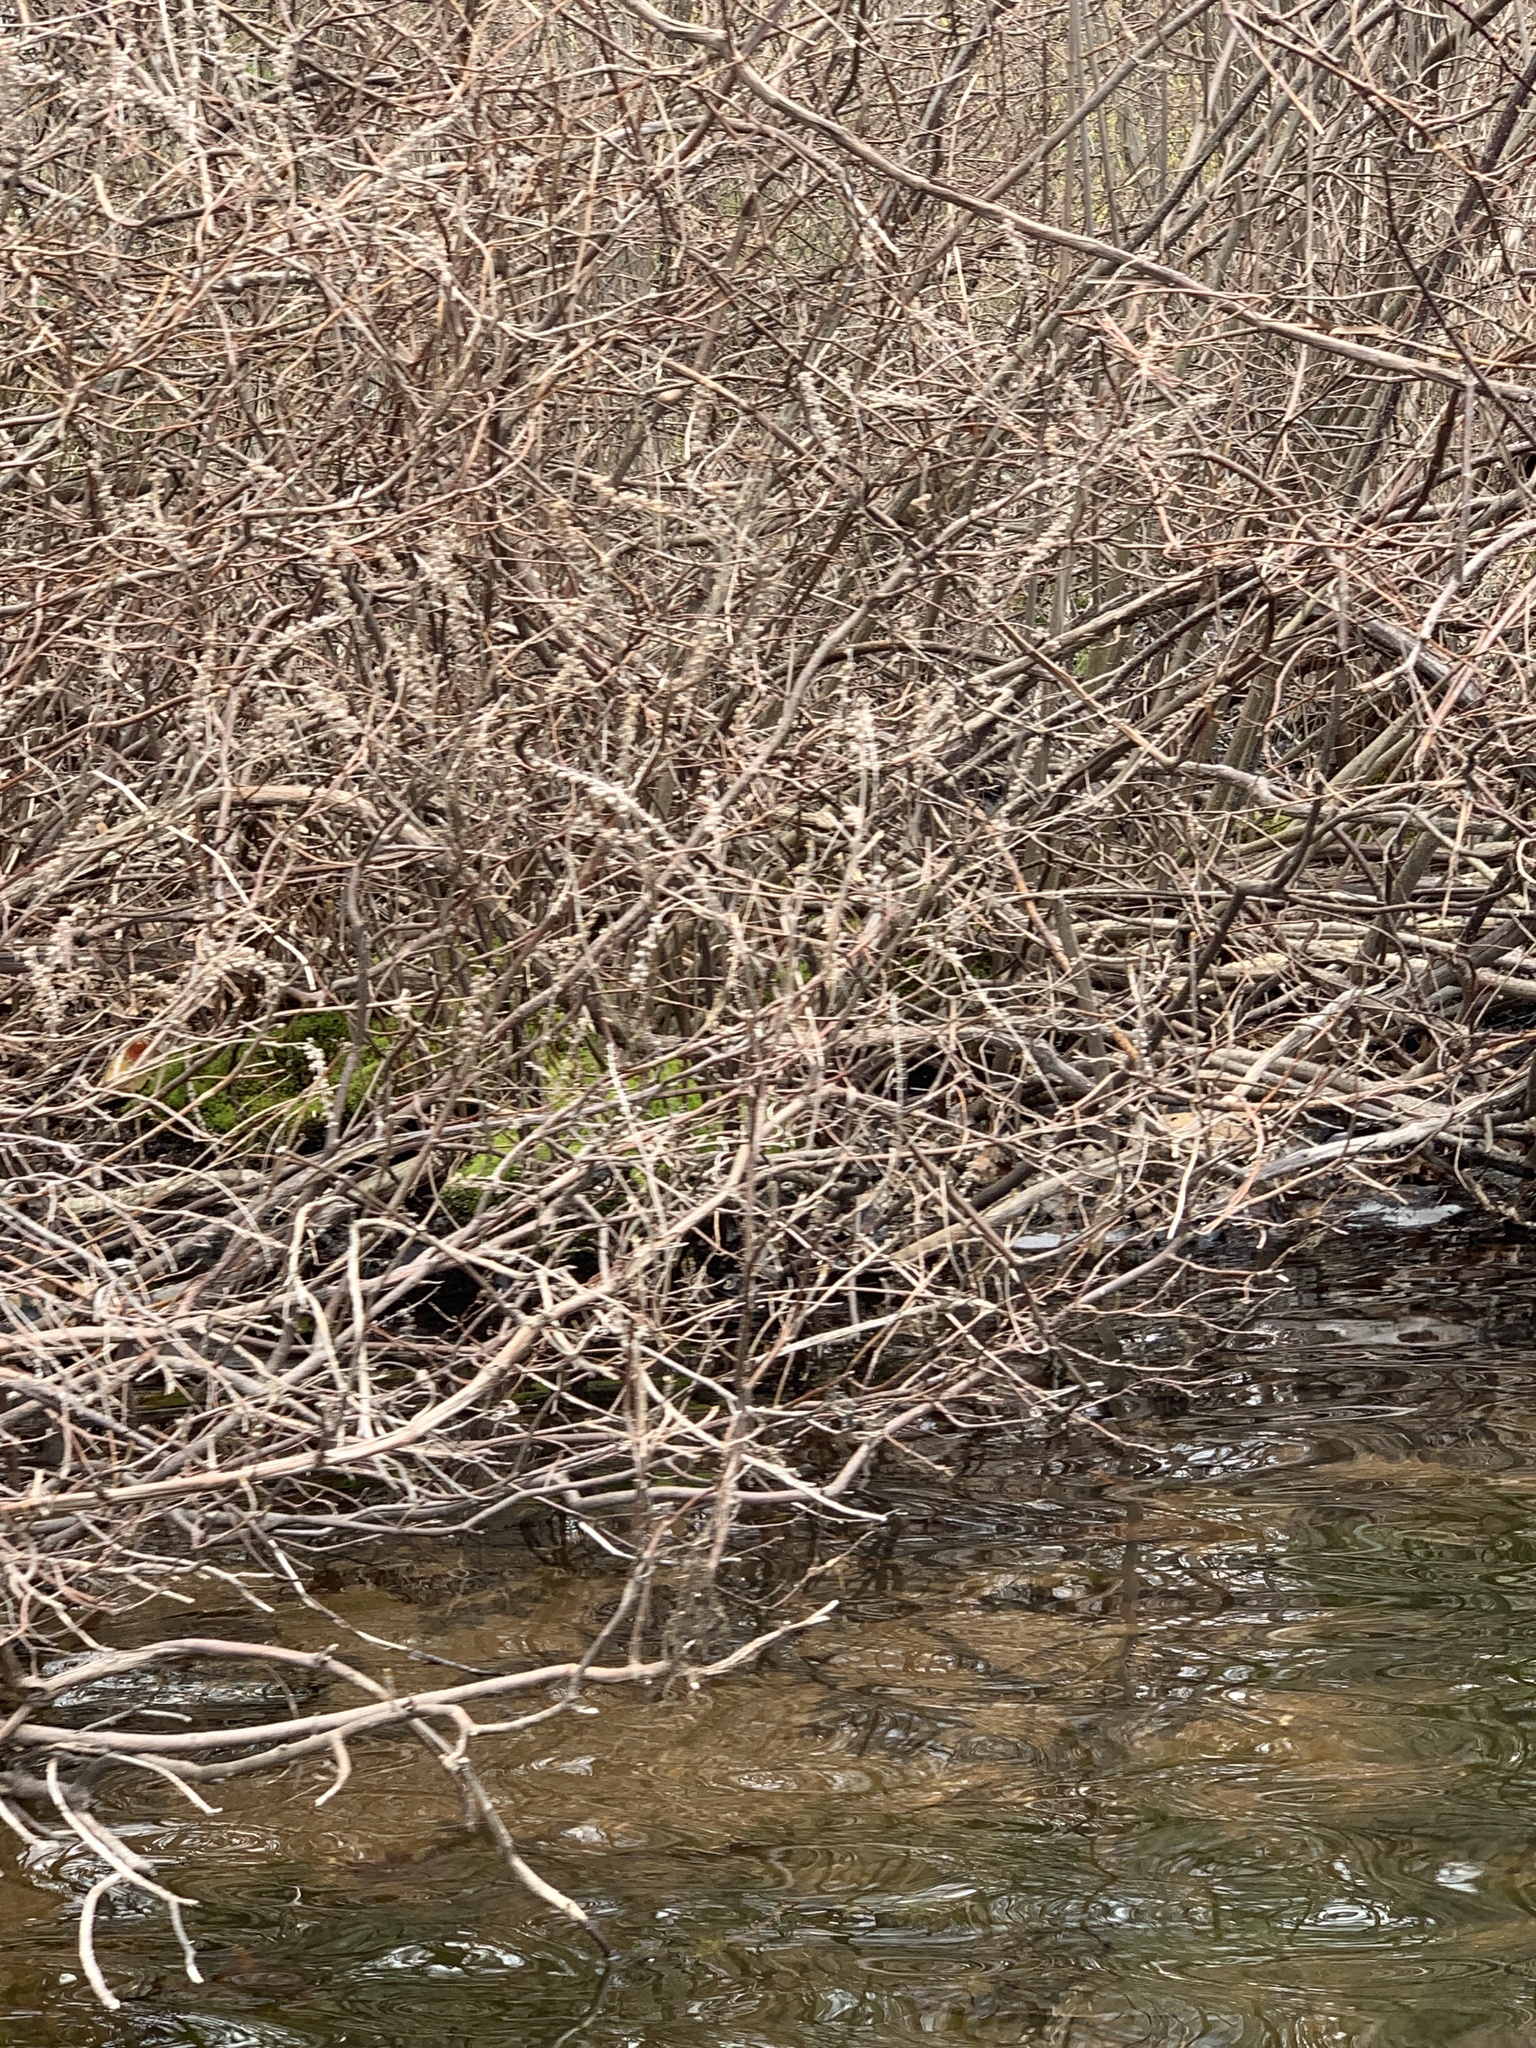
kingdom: Plantae
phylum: Tracheophyta
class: Magnoliopsida
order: Ericales
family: Clethraceae
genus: Clethra
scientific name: Clethra alnifolia
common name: Sweet pepperbush
